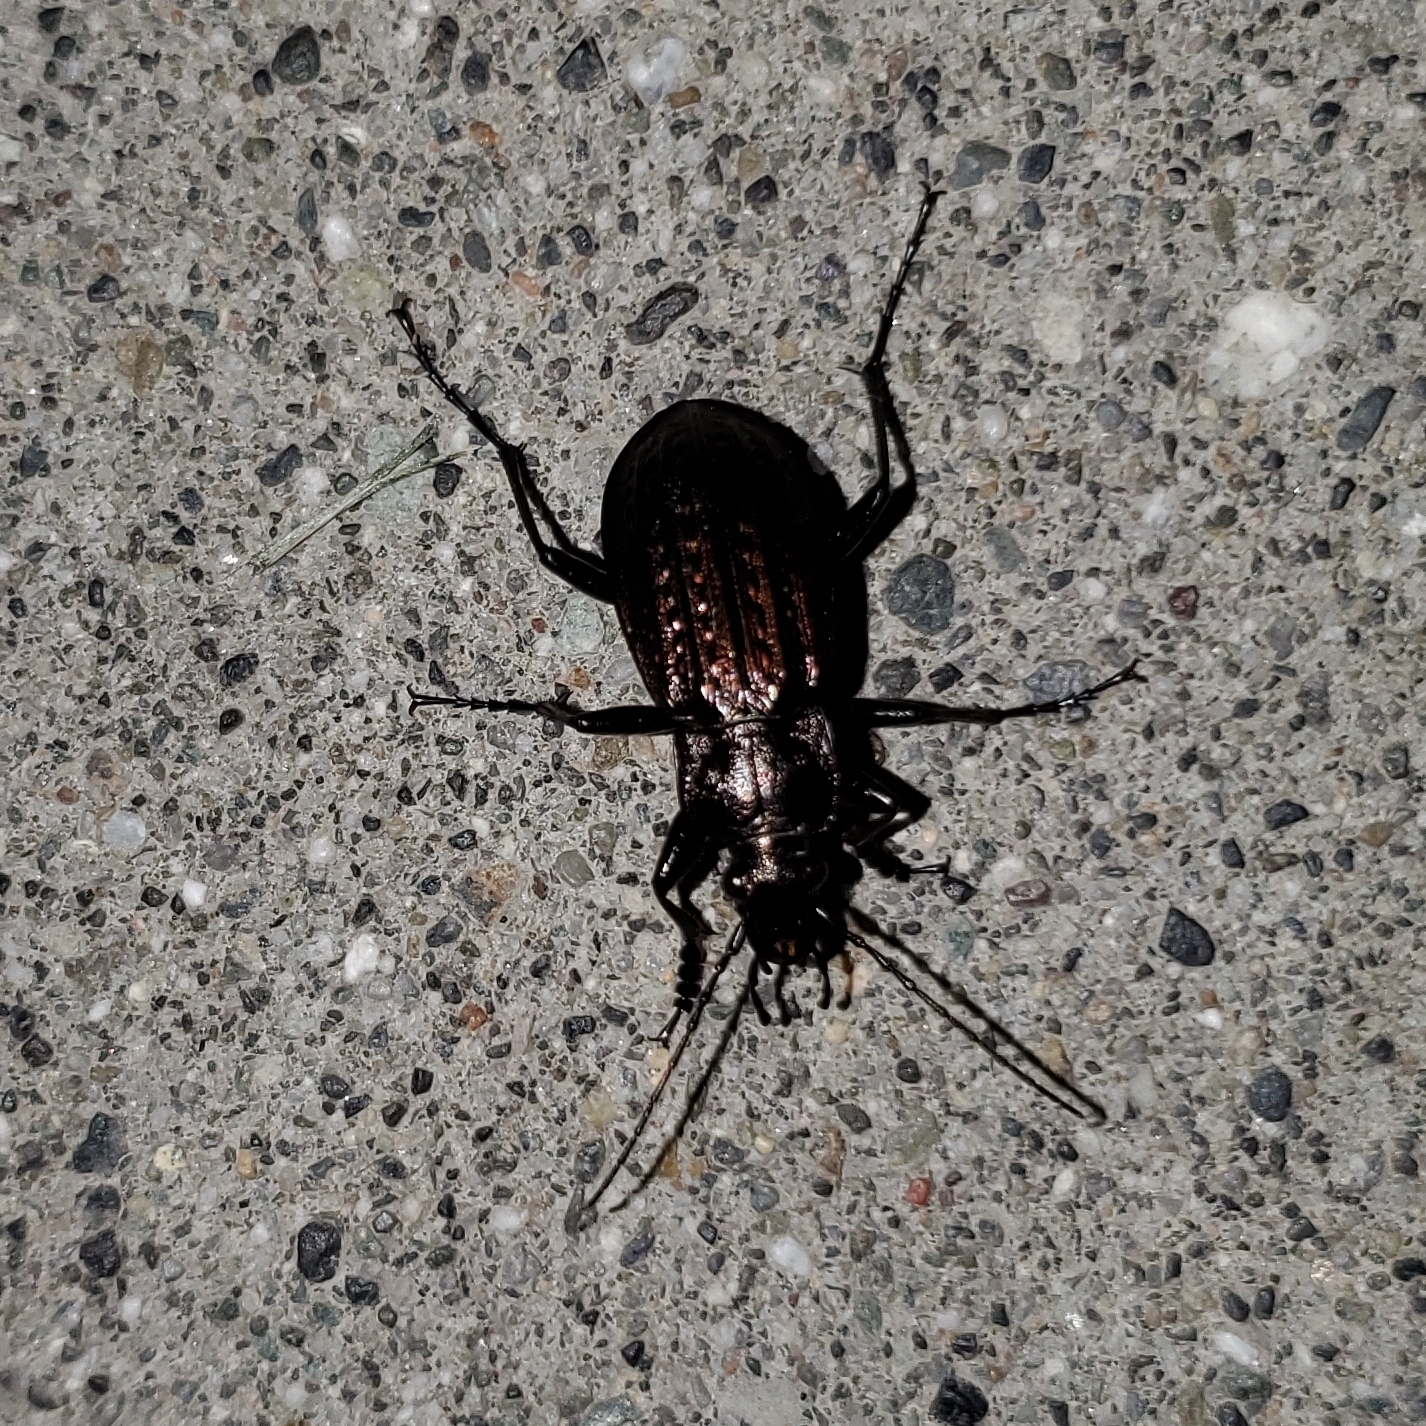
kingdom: Animalia
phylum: Arthropoda
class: Insecta
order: Coleoptera
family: Carabidae
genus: Carabus
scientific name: Carabus granulatus
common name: Granulate ground beetle
